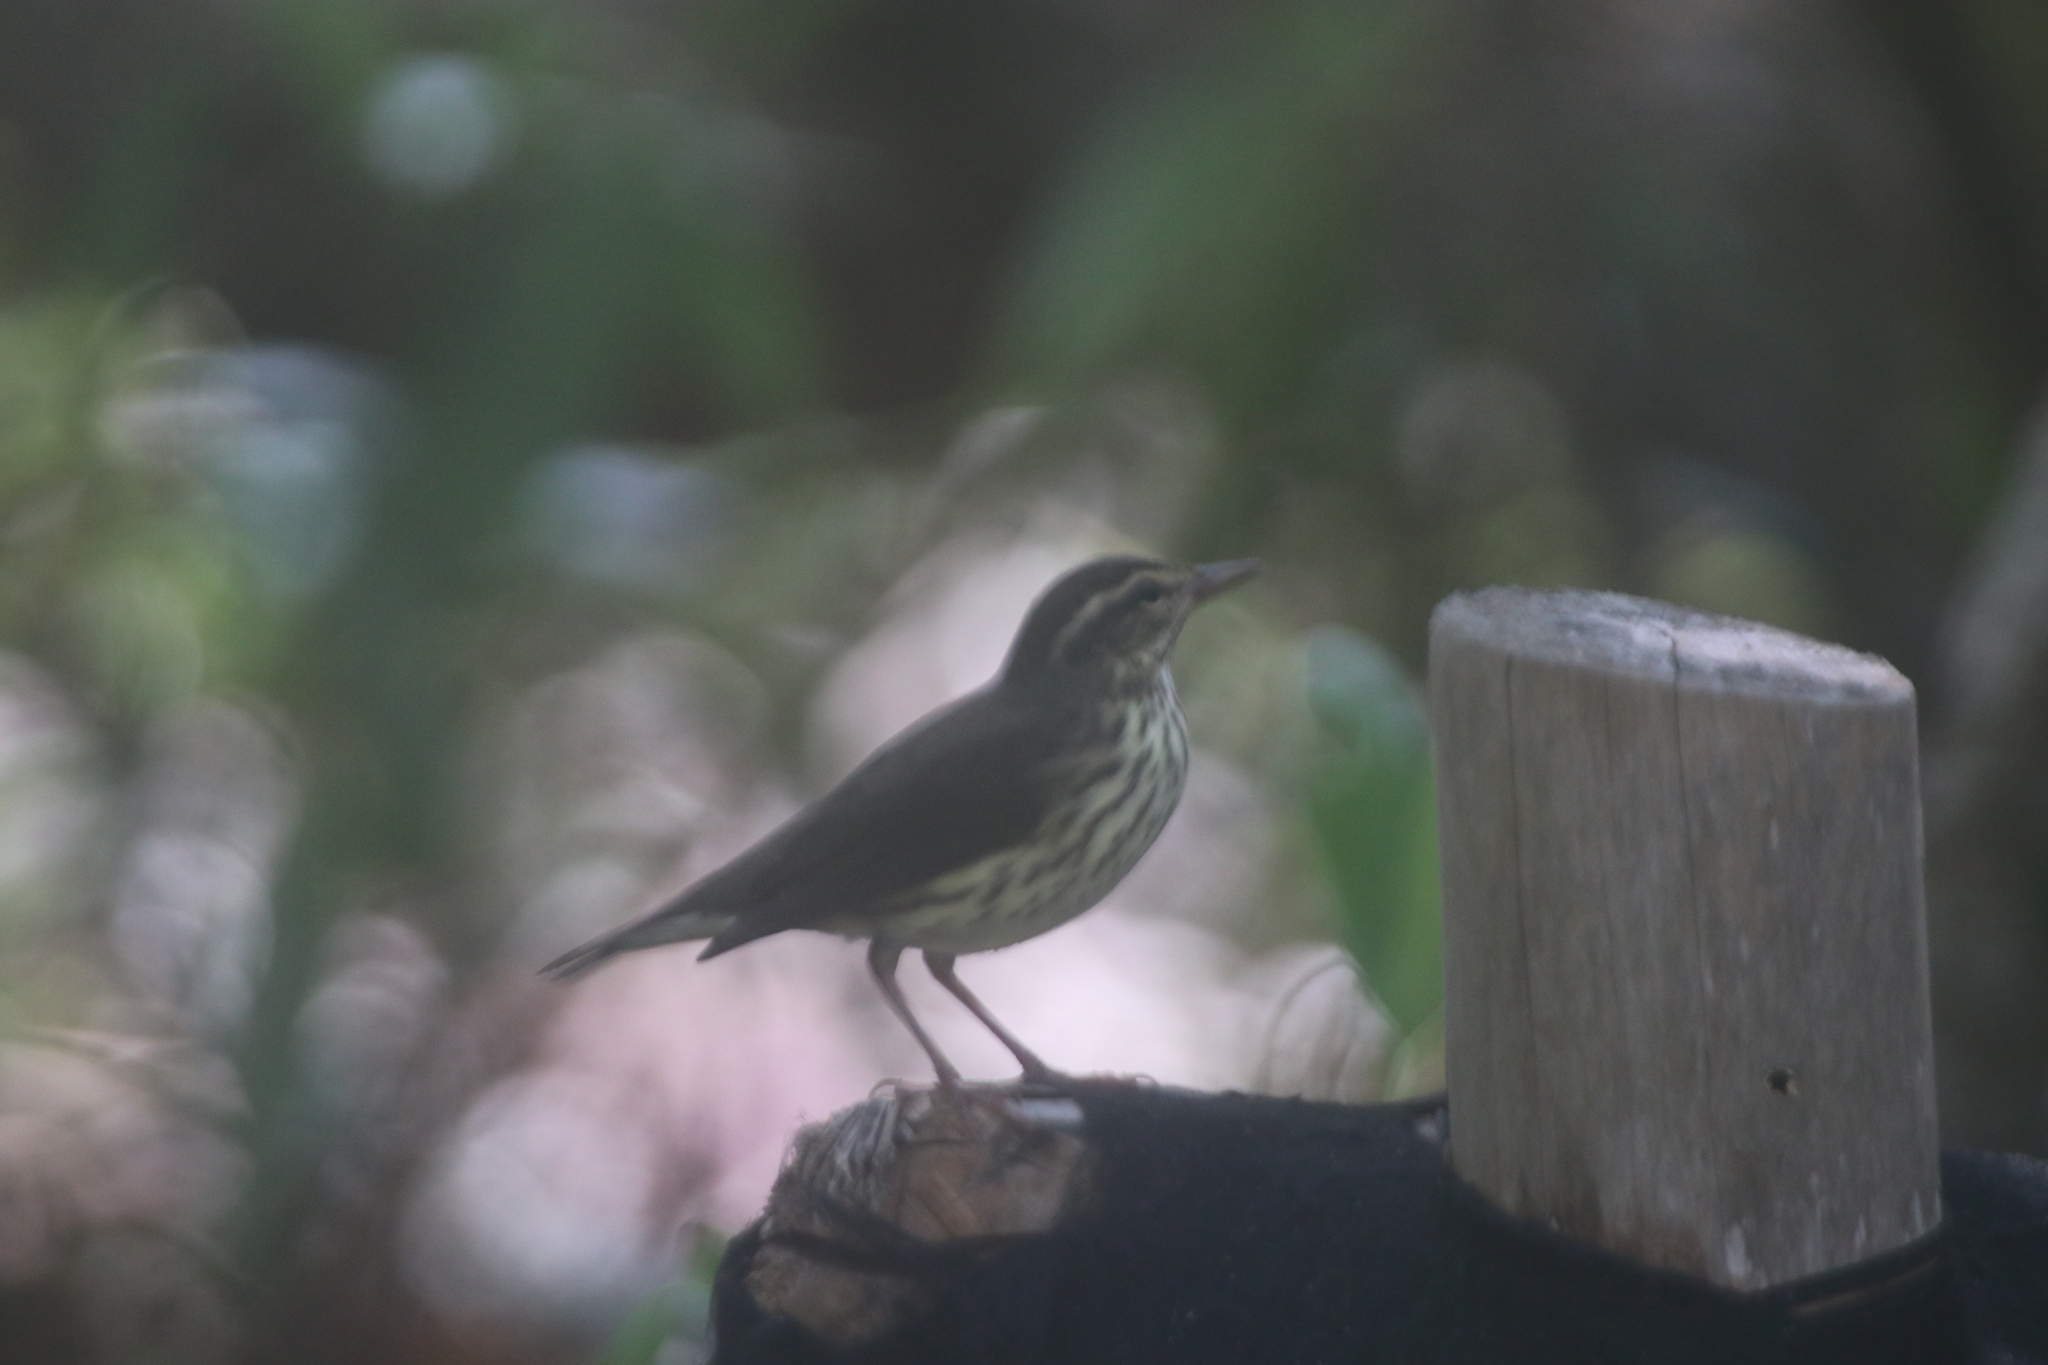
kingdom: Animalia
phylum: Chordata
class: Aves
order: Passeriformes
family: Parulidae
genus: Parkesia
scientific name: Parkesia noveboracensis
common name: Northern waterthrush
